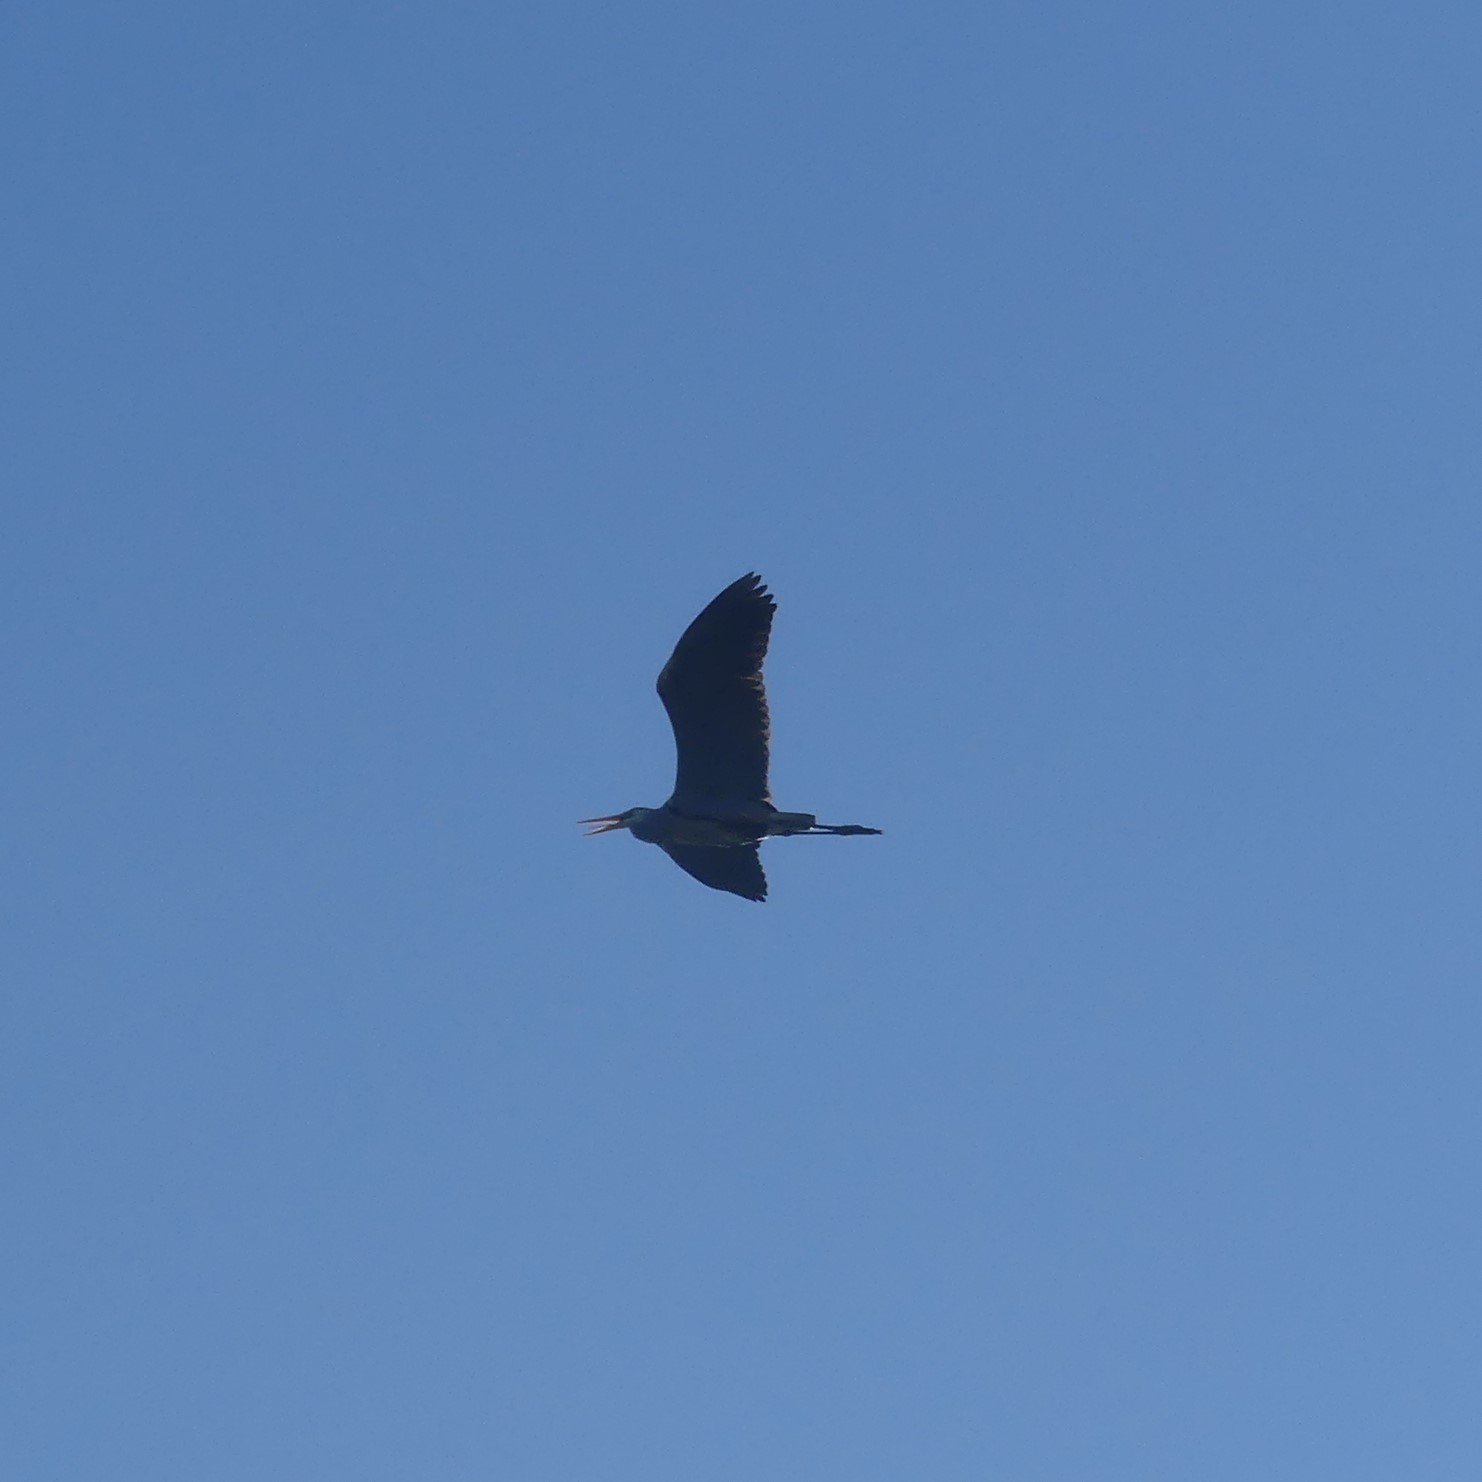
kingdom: Animalia
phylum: Chordata
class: Aves
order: Pelecaniformes
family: Ardeidae
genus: Ardea
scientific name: Ardea herodias
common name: Great blue heron
